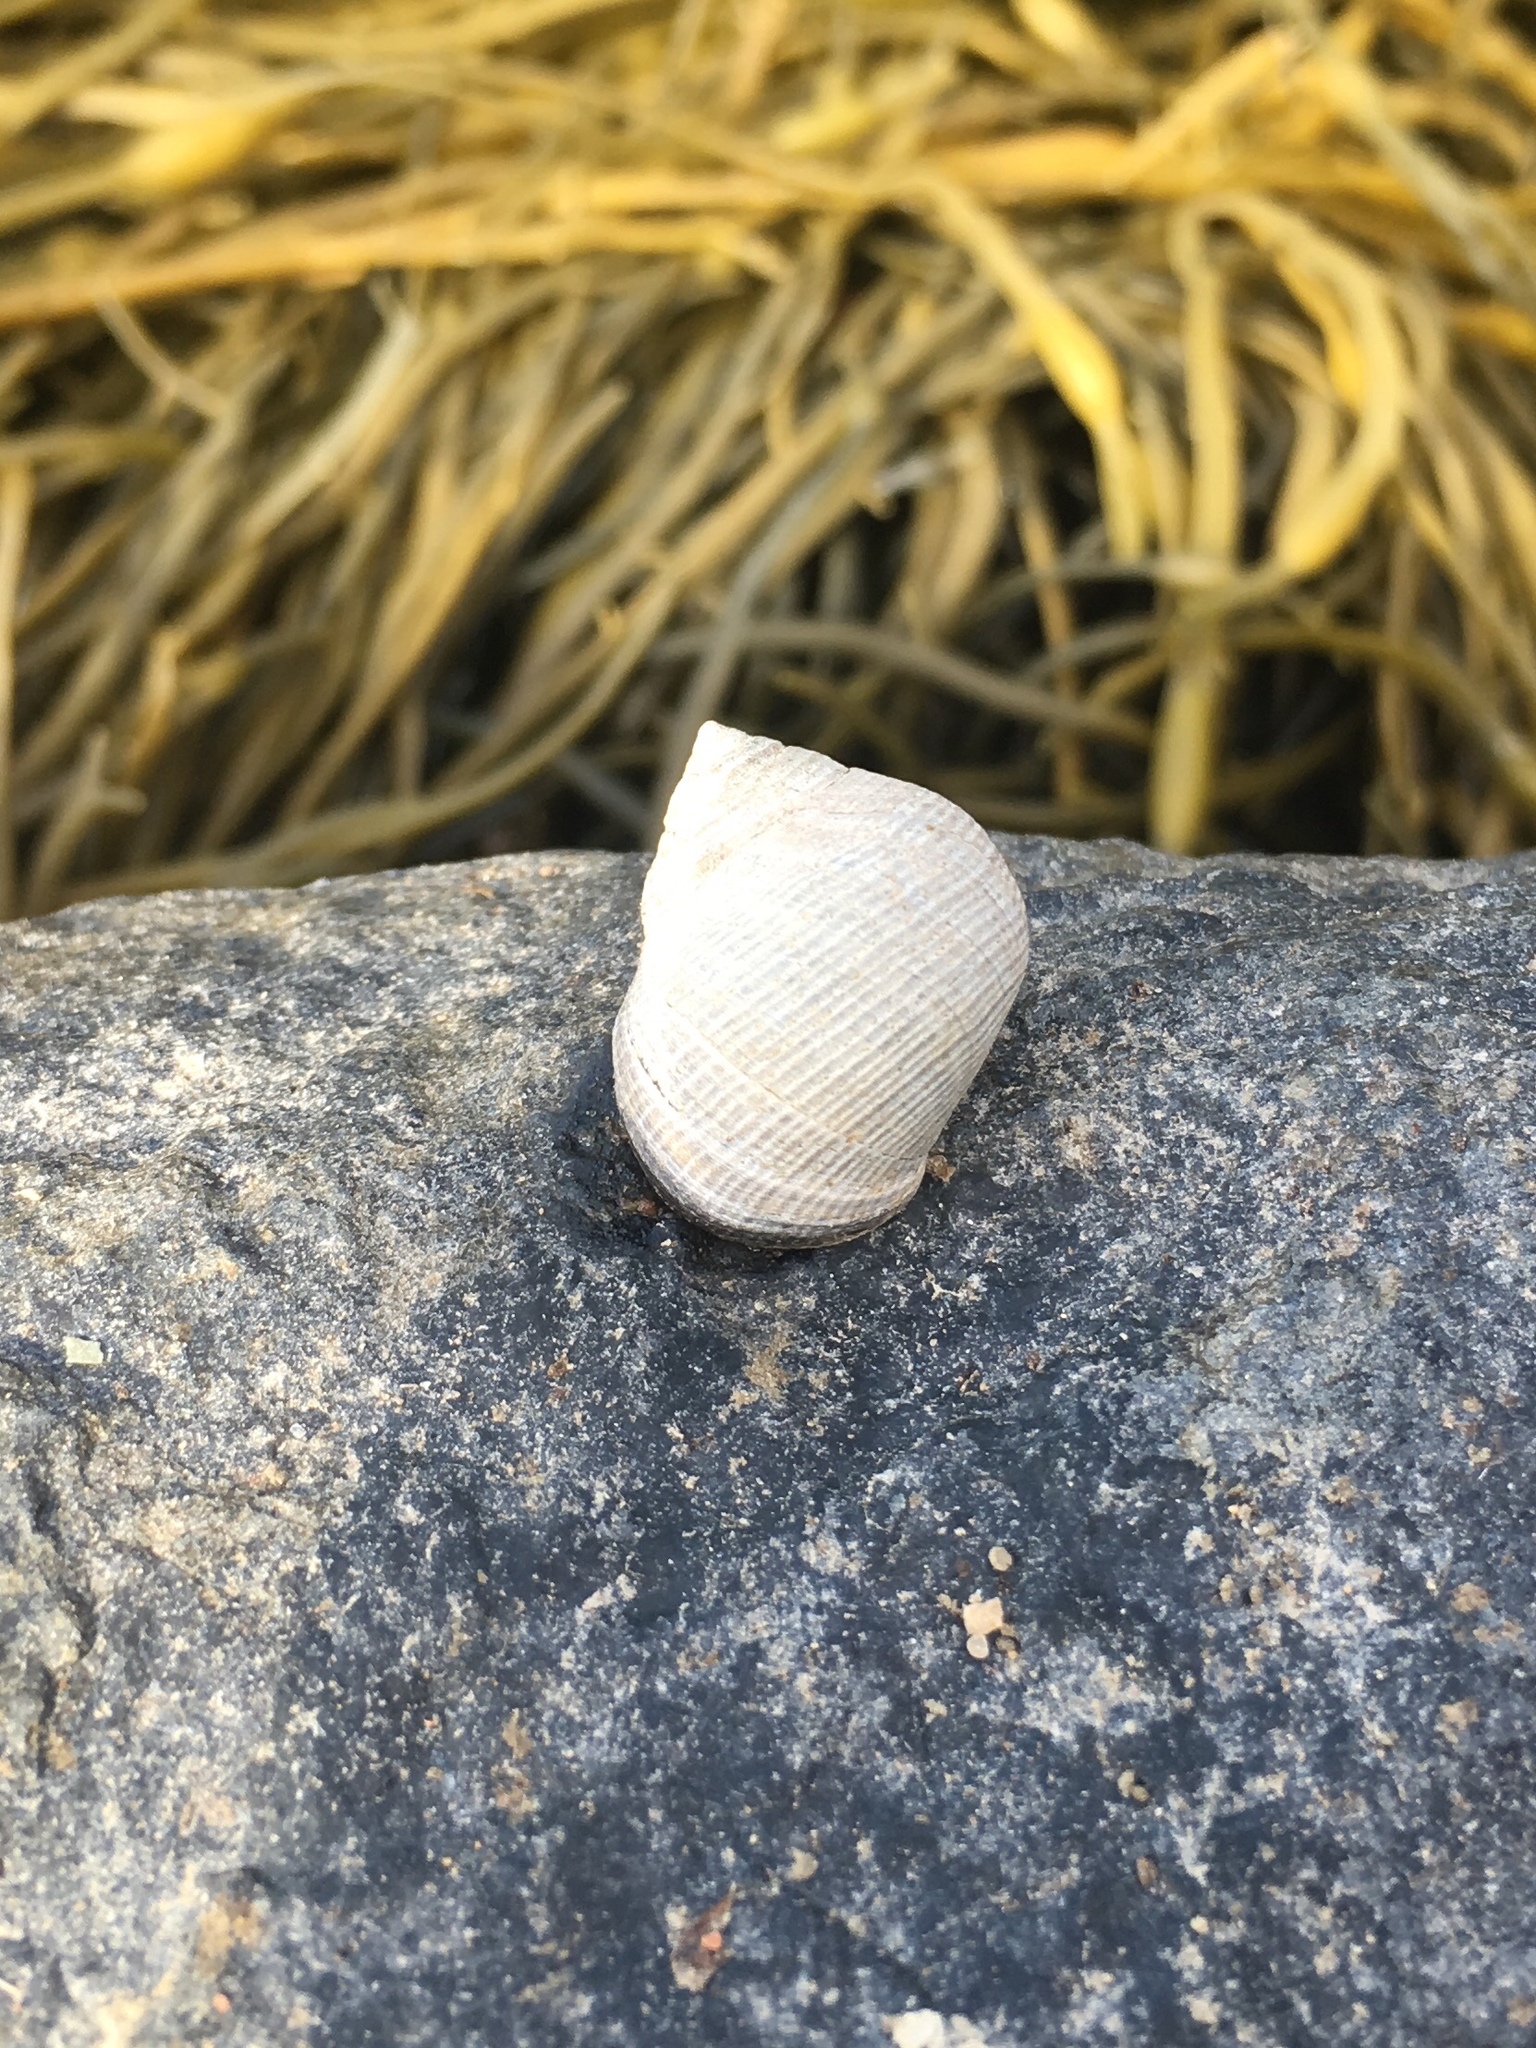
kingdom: Animalia
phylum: Mollusca
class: Gastropoda
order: Littorinimorpha
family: Littorinidae
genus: Littorina
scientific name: Littorina littorea
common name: Common periwinkle
